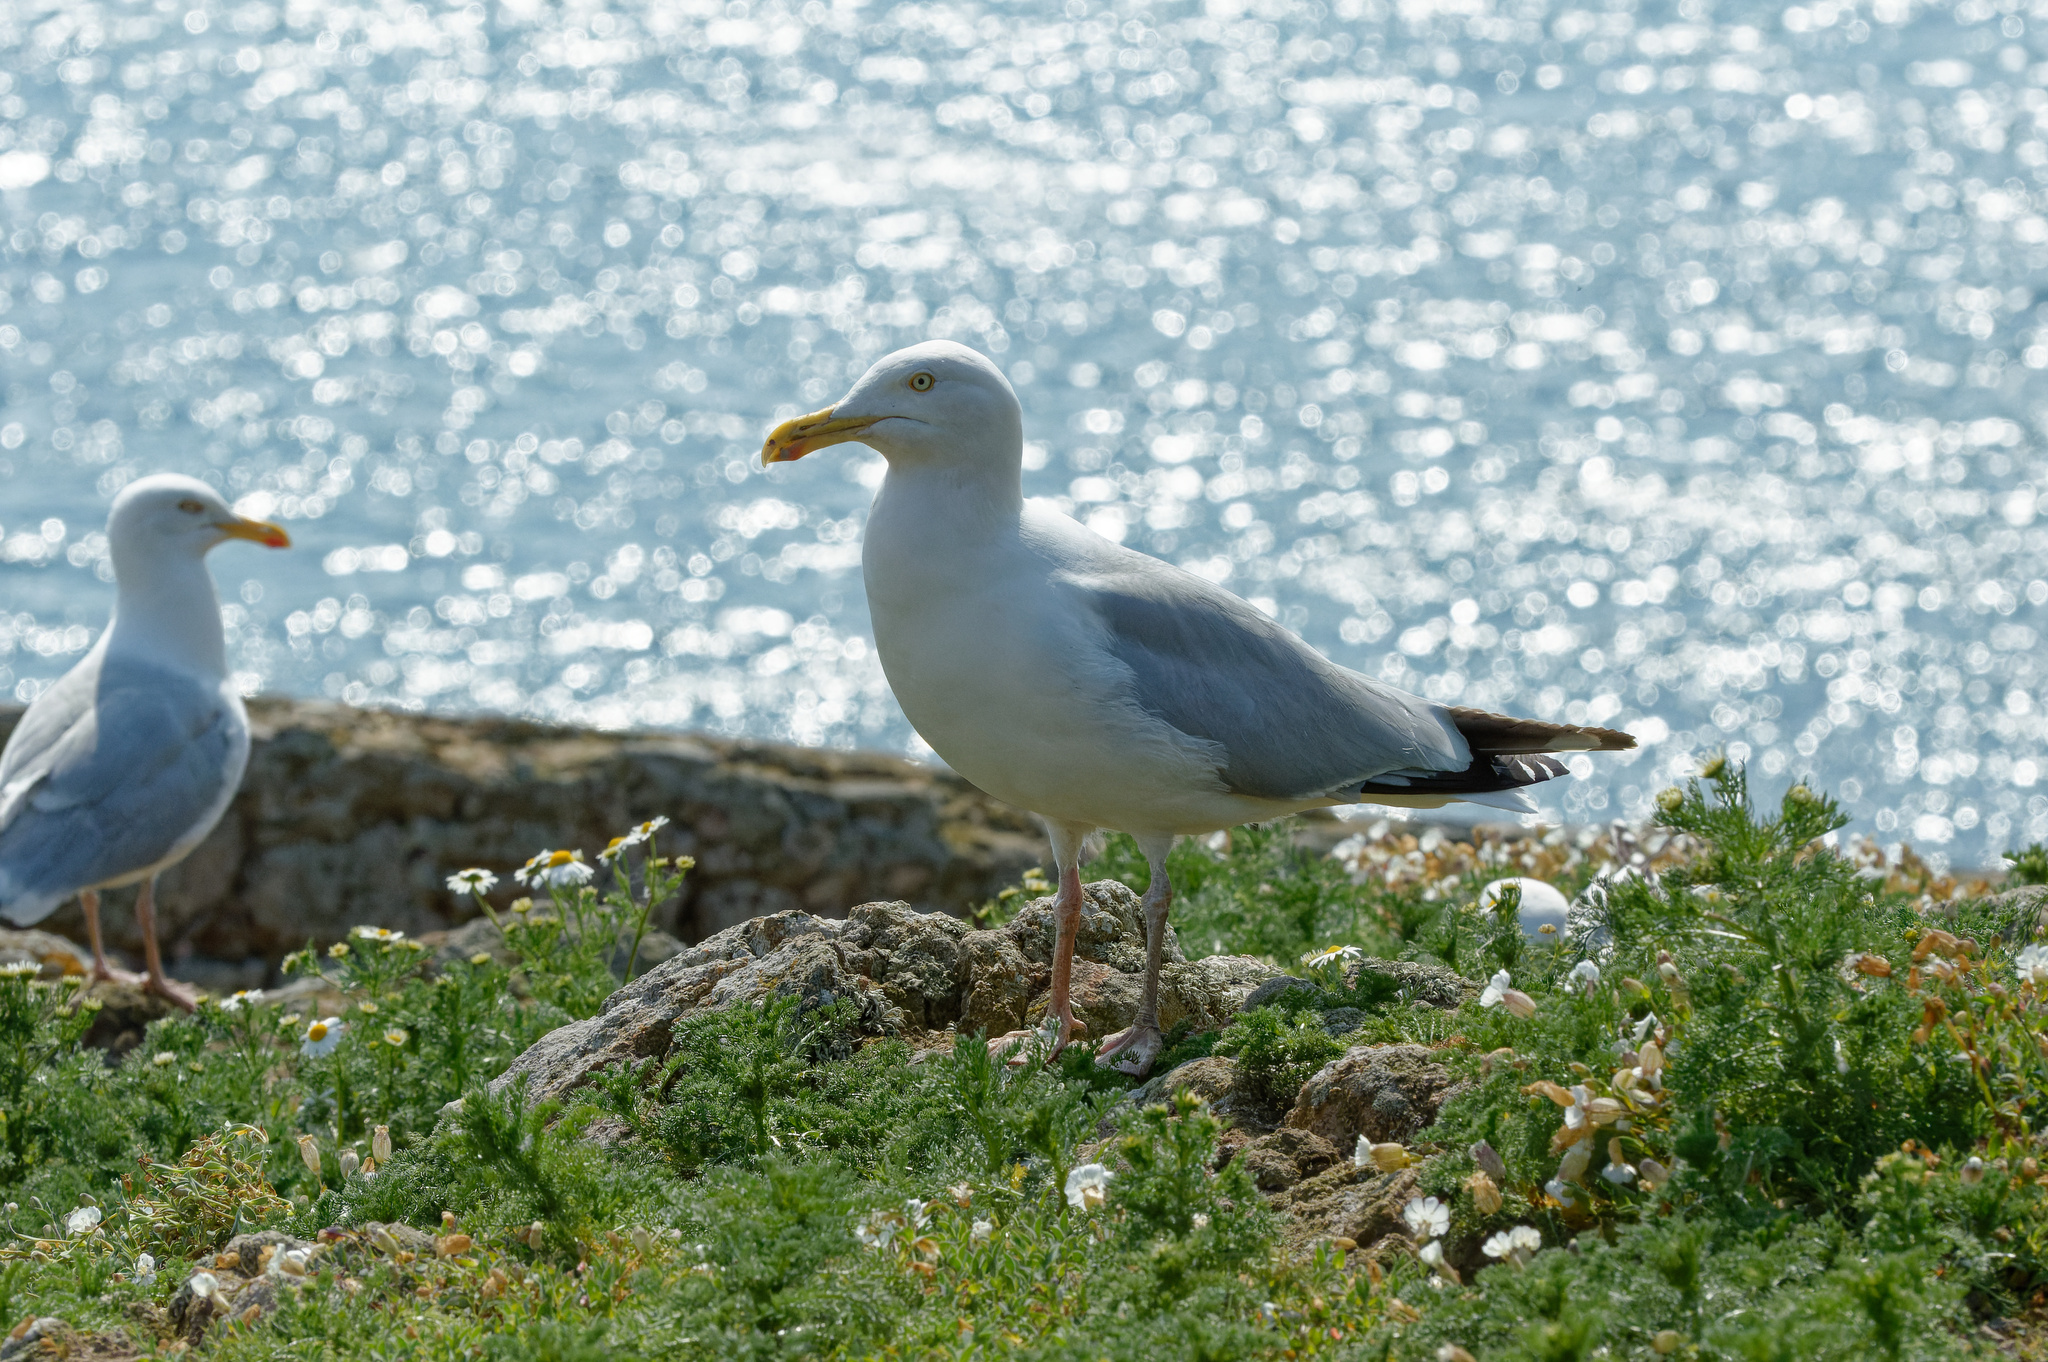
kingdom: Animalia
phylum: Chordata
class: Aves
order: Charadriiformes
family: Laridae
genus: Larus
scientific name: Larus argentatus
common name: Herring gull
